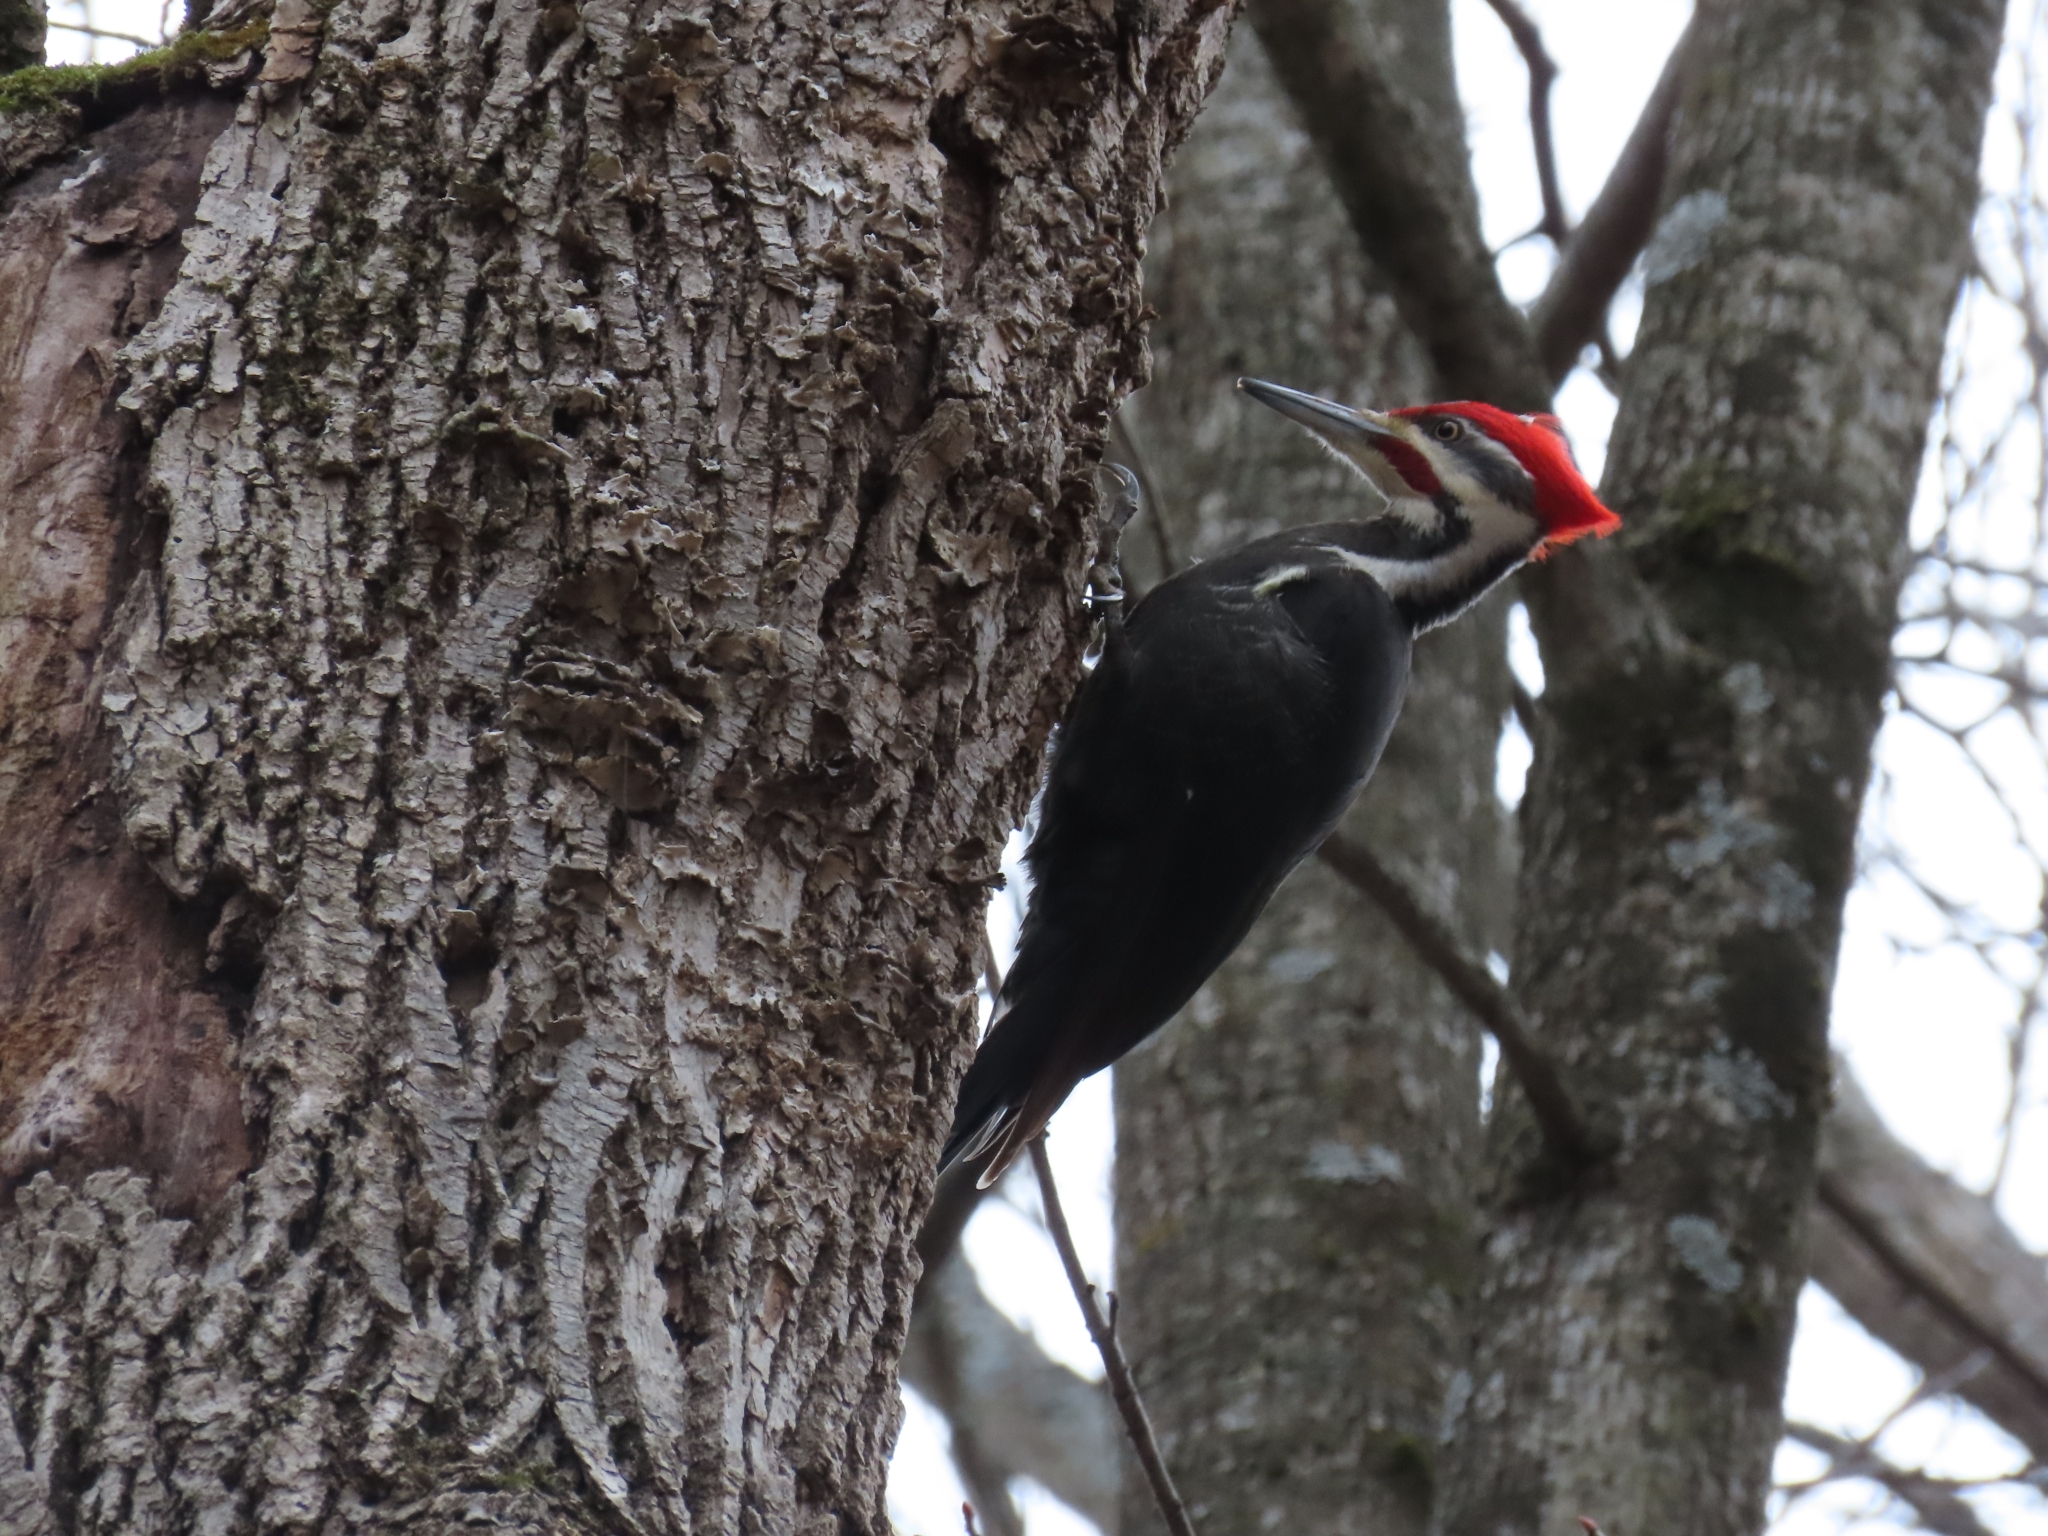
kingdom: Animalia
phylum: Chordata
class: Aves
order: Piciformes
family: Picidae
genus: Dryocopus
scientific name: Dryocopus pileatus
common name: Pileated woodpecker
